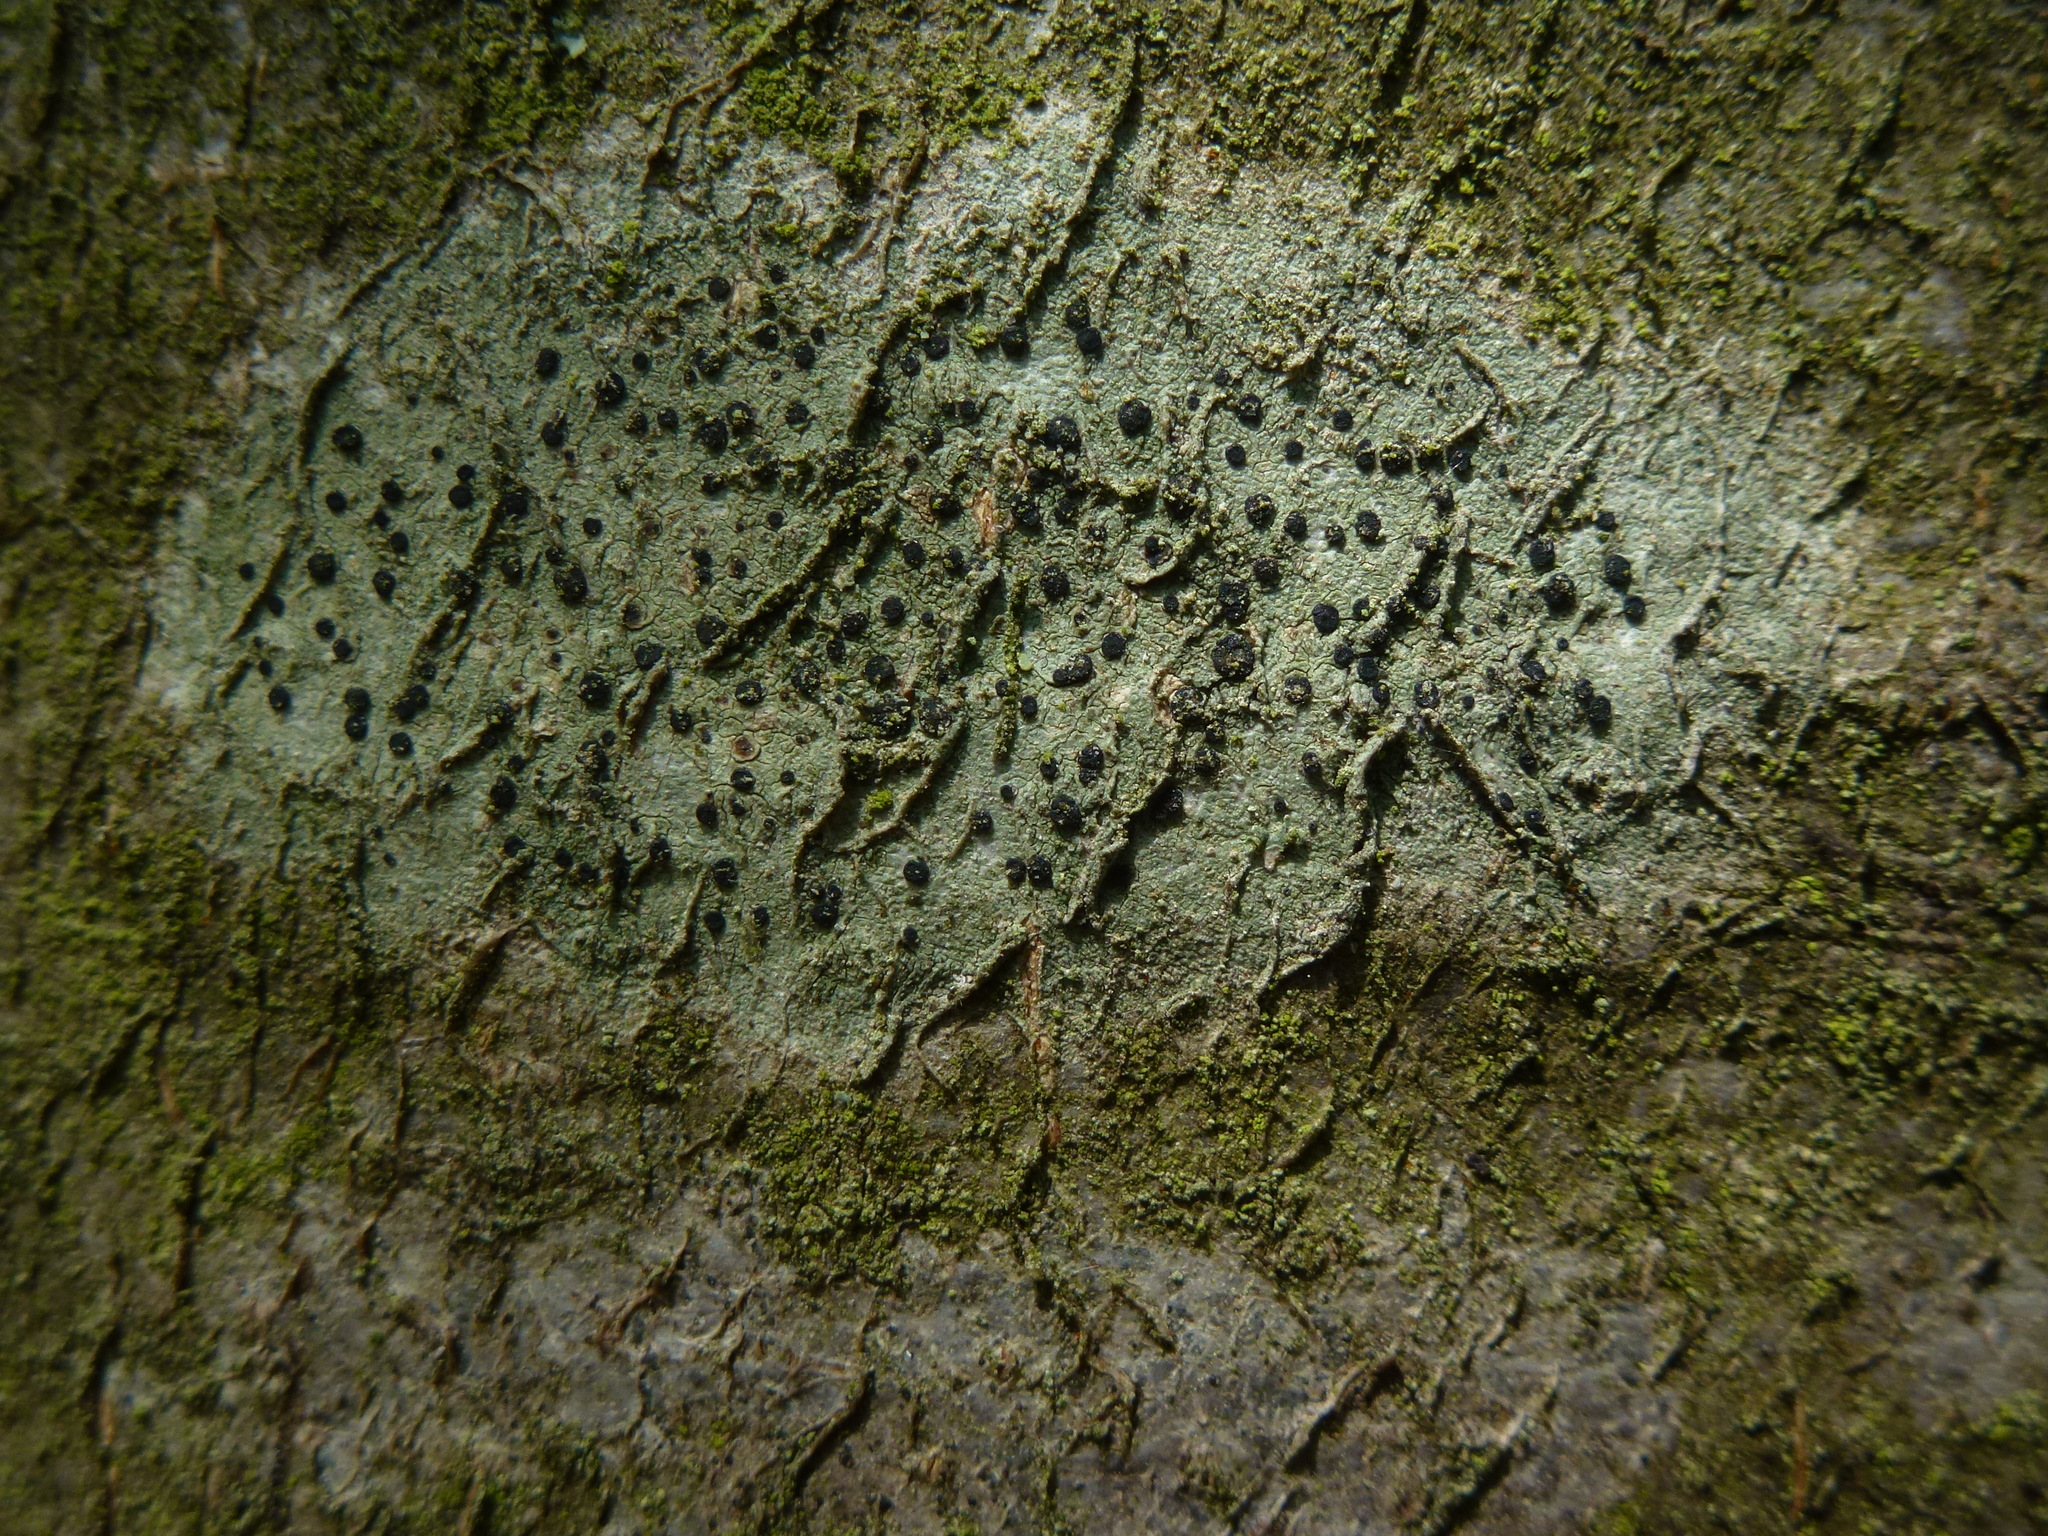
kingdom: Fungi
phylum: Ascomycota
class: Lecanoromycetes
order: Lecanorales
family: Lecanoraceae
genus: Lecidella
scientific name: Lecidella elaeochroma
